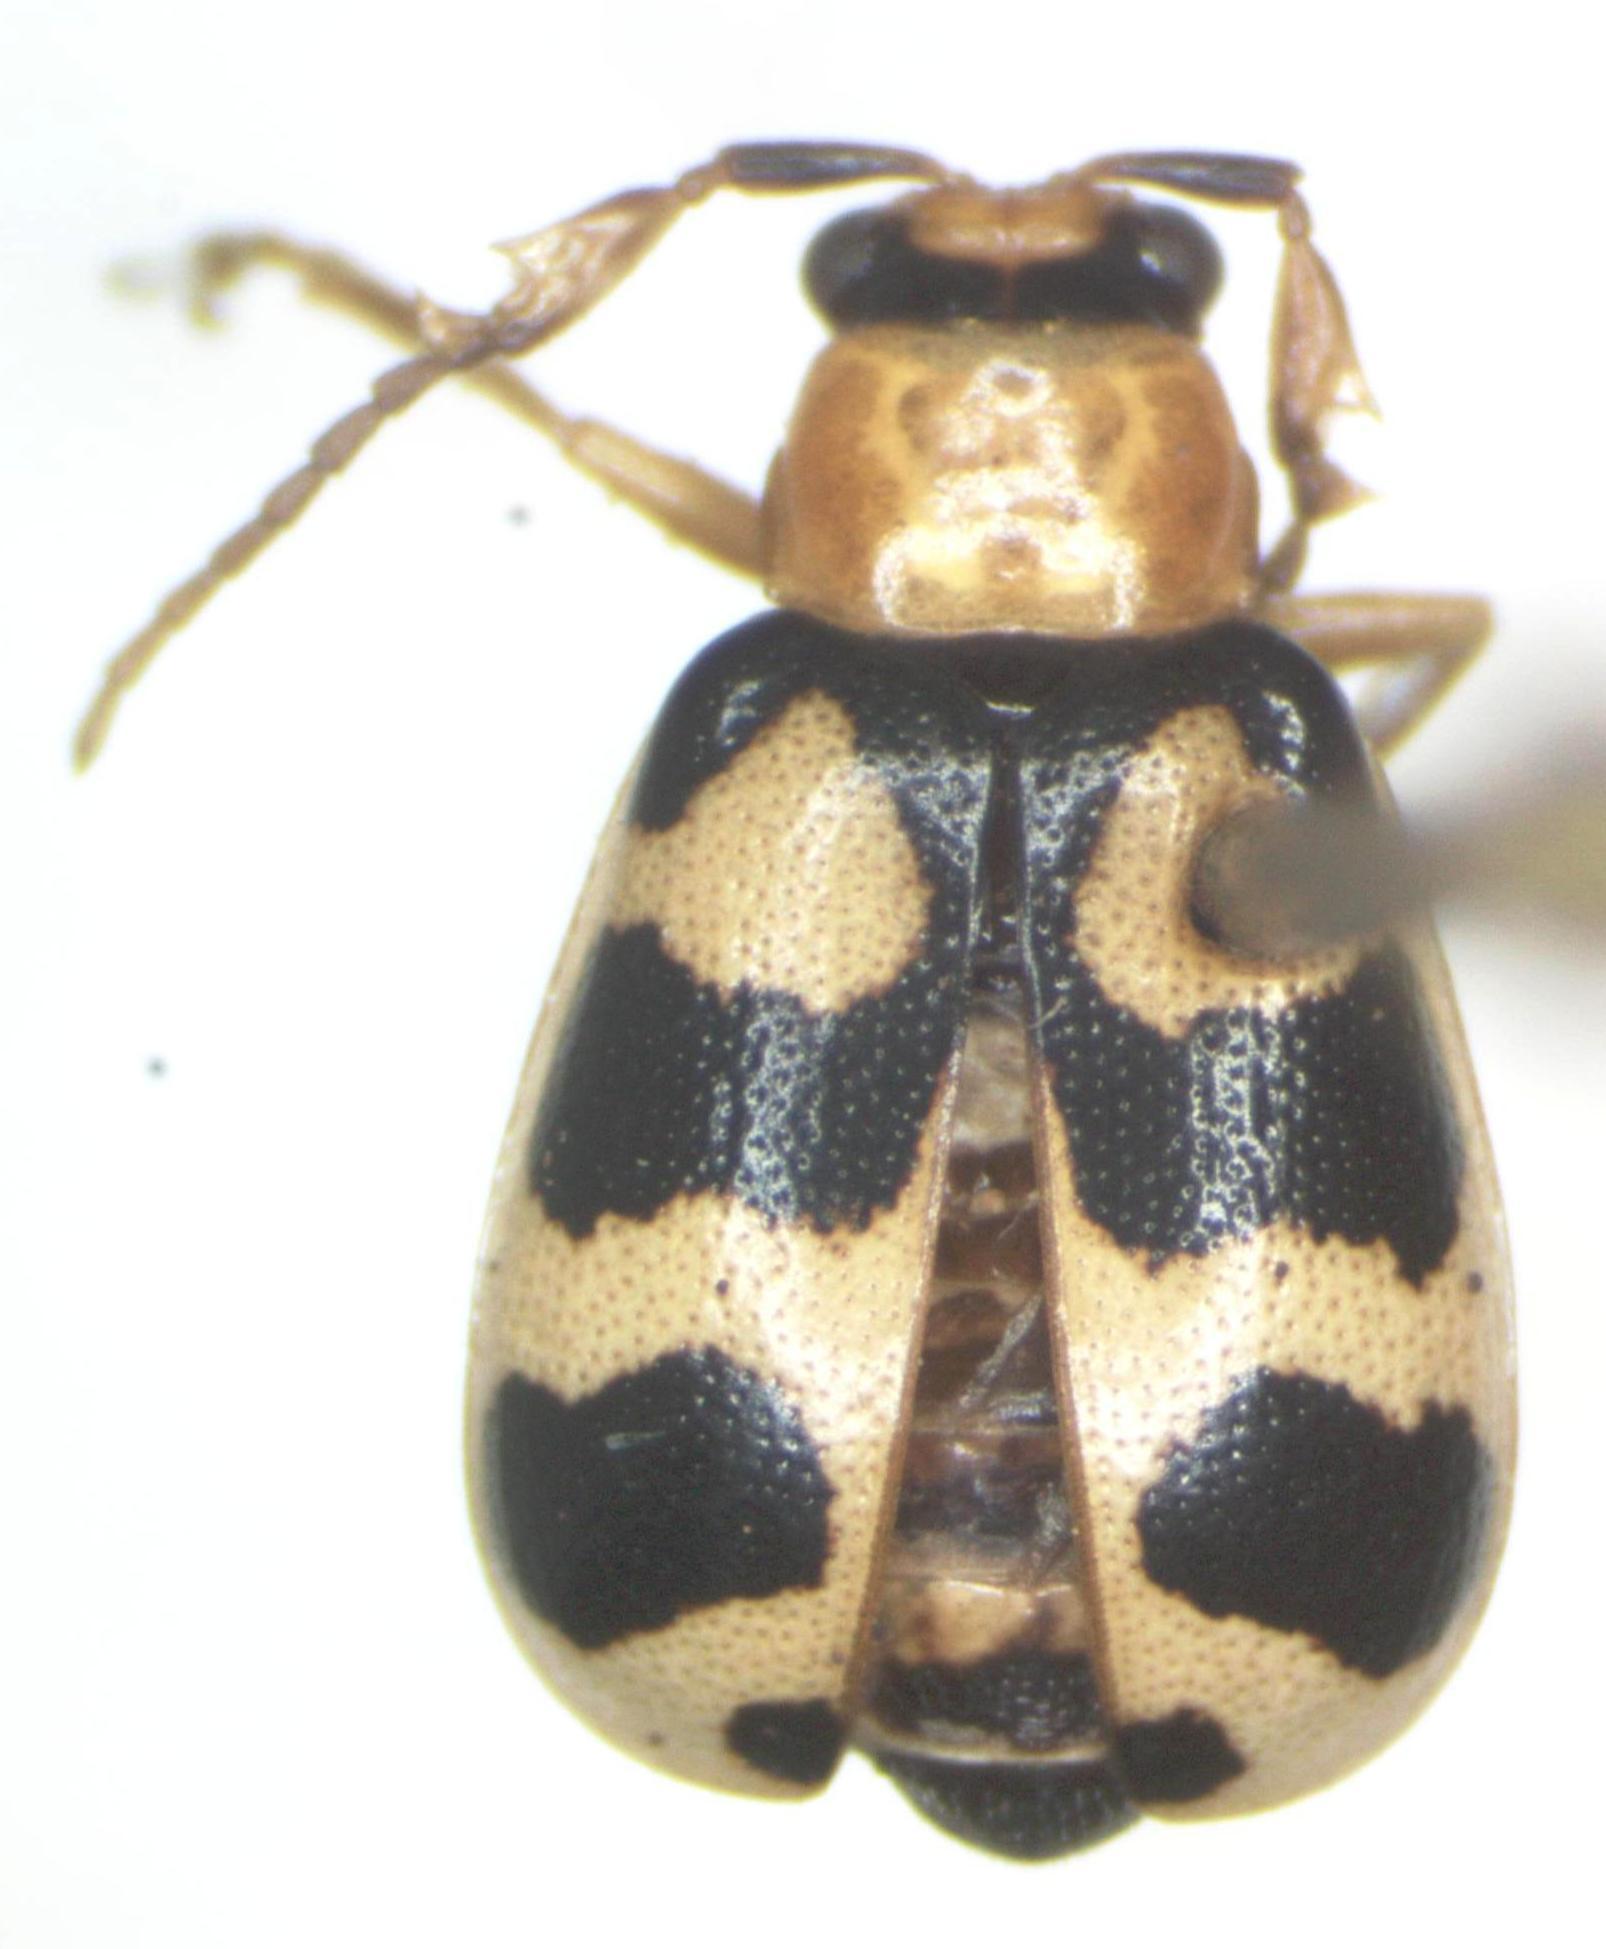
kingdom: Animalia
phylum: Arthropoda
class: Insecta
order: Coleoptera
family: Chrysomelidae
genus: Cerotoma
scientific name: Cerotoma atrofasciata
